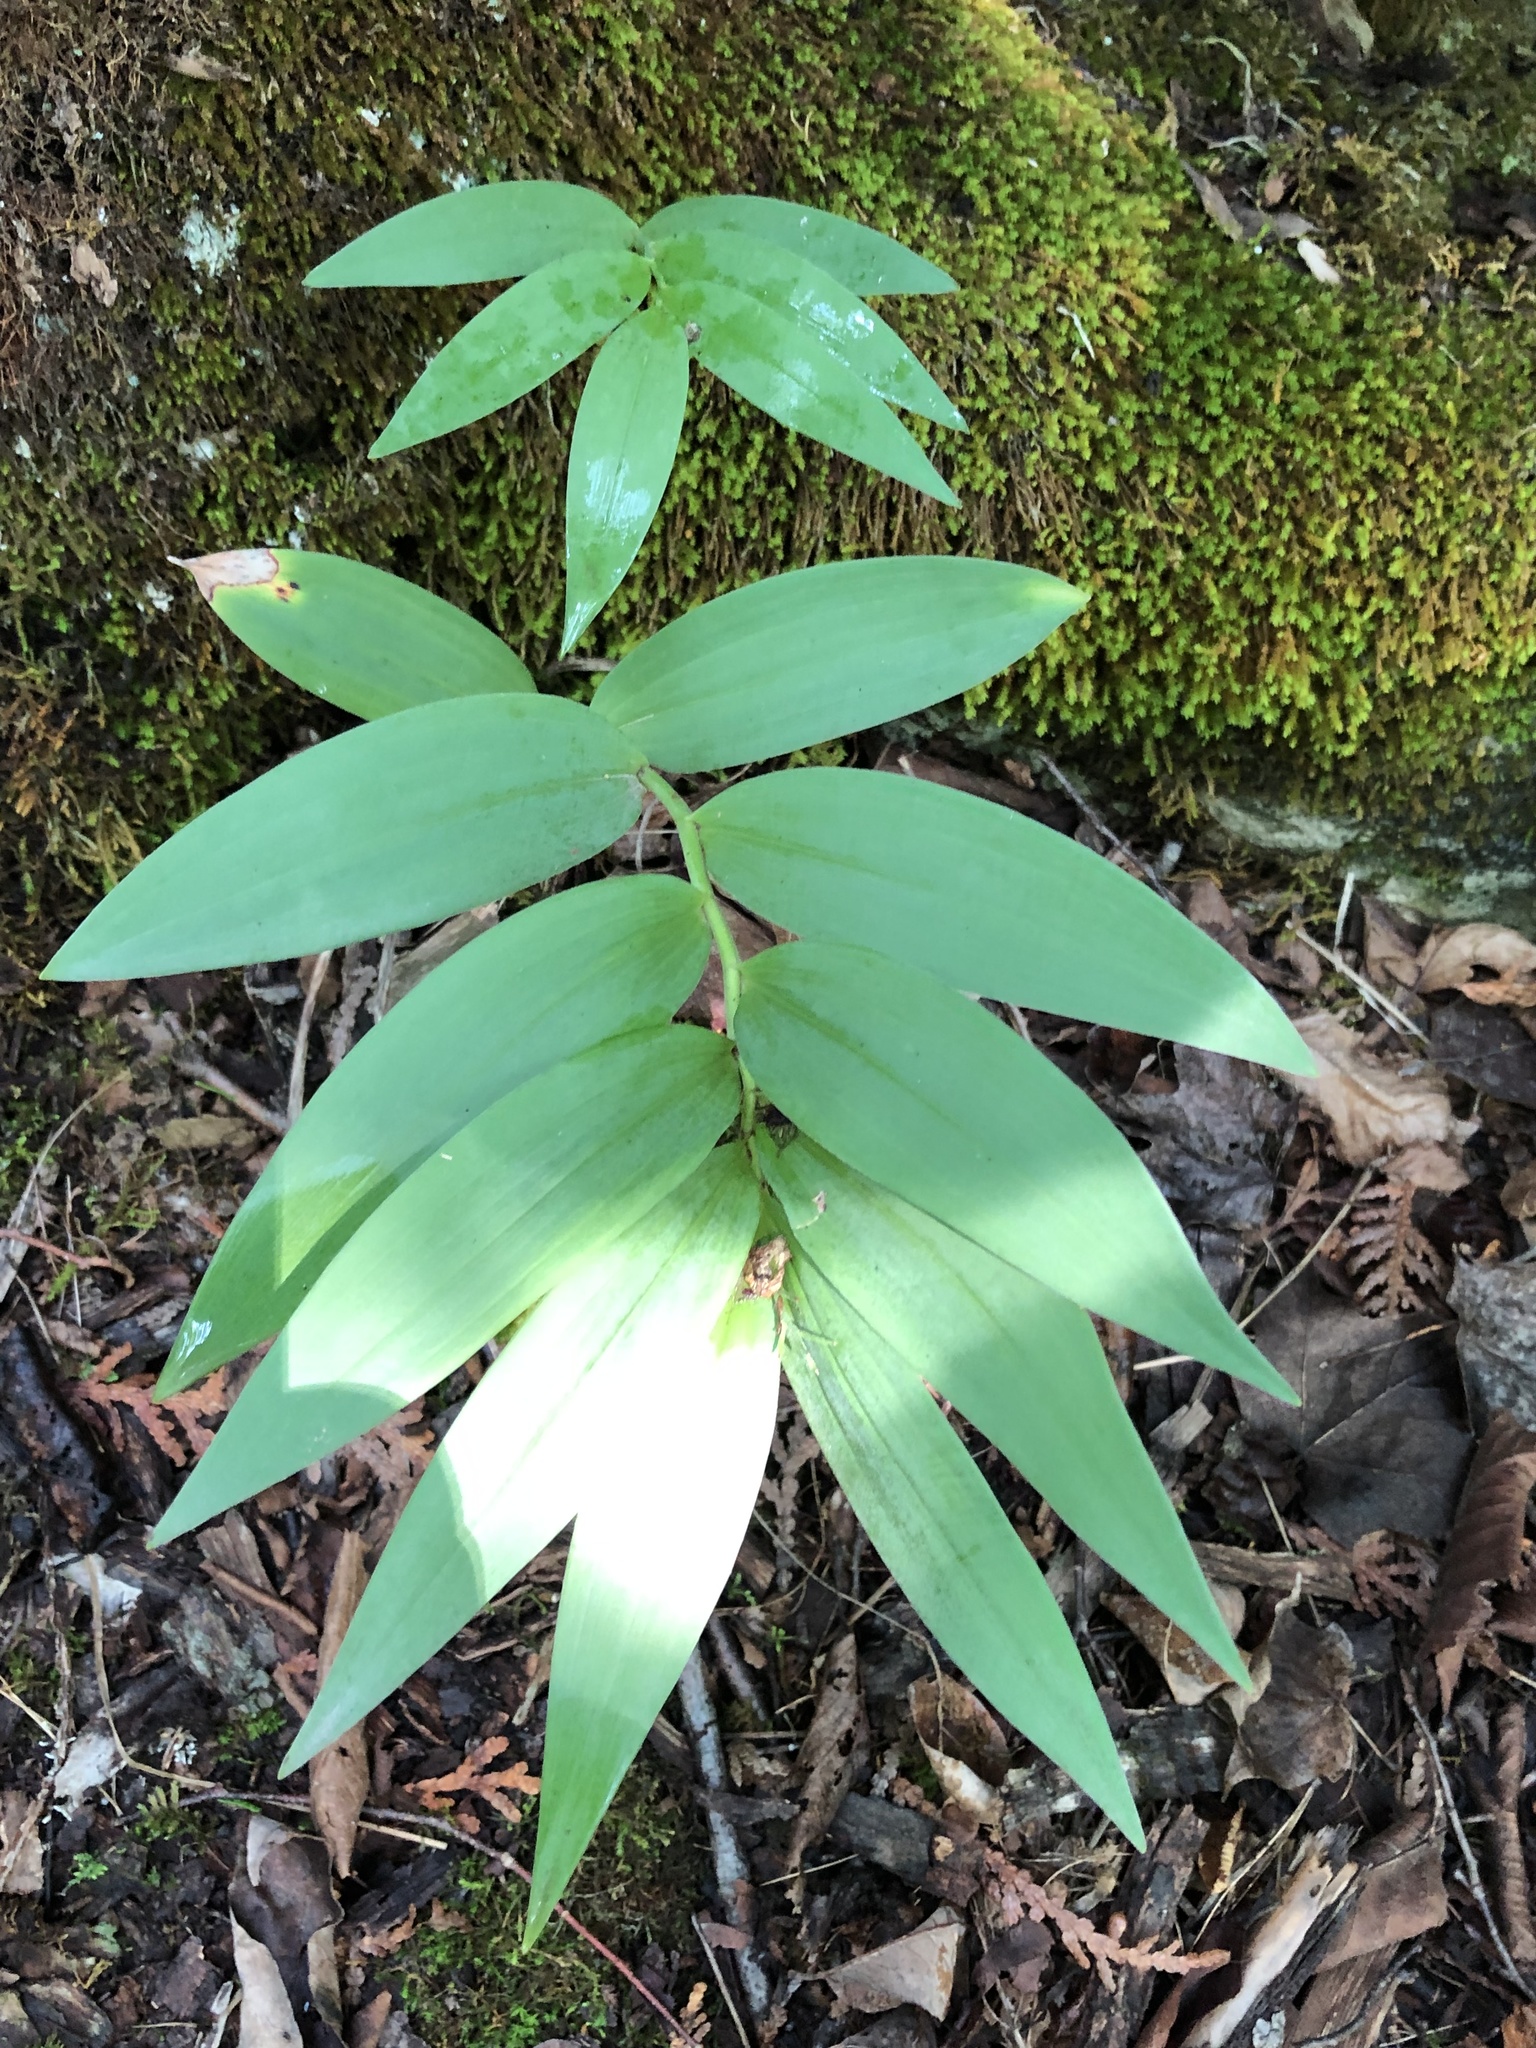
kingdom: Plantae
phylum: Tracheophyta
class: Liliopsida
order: Asparagales
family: Asparagaceae
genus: Maianthemum
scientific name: Maianthemum stellatum
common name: Little false solomon's seal
